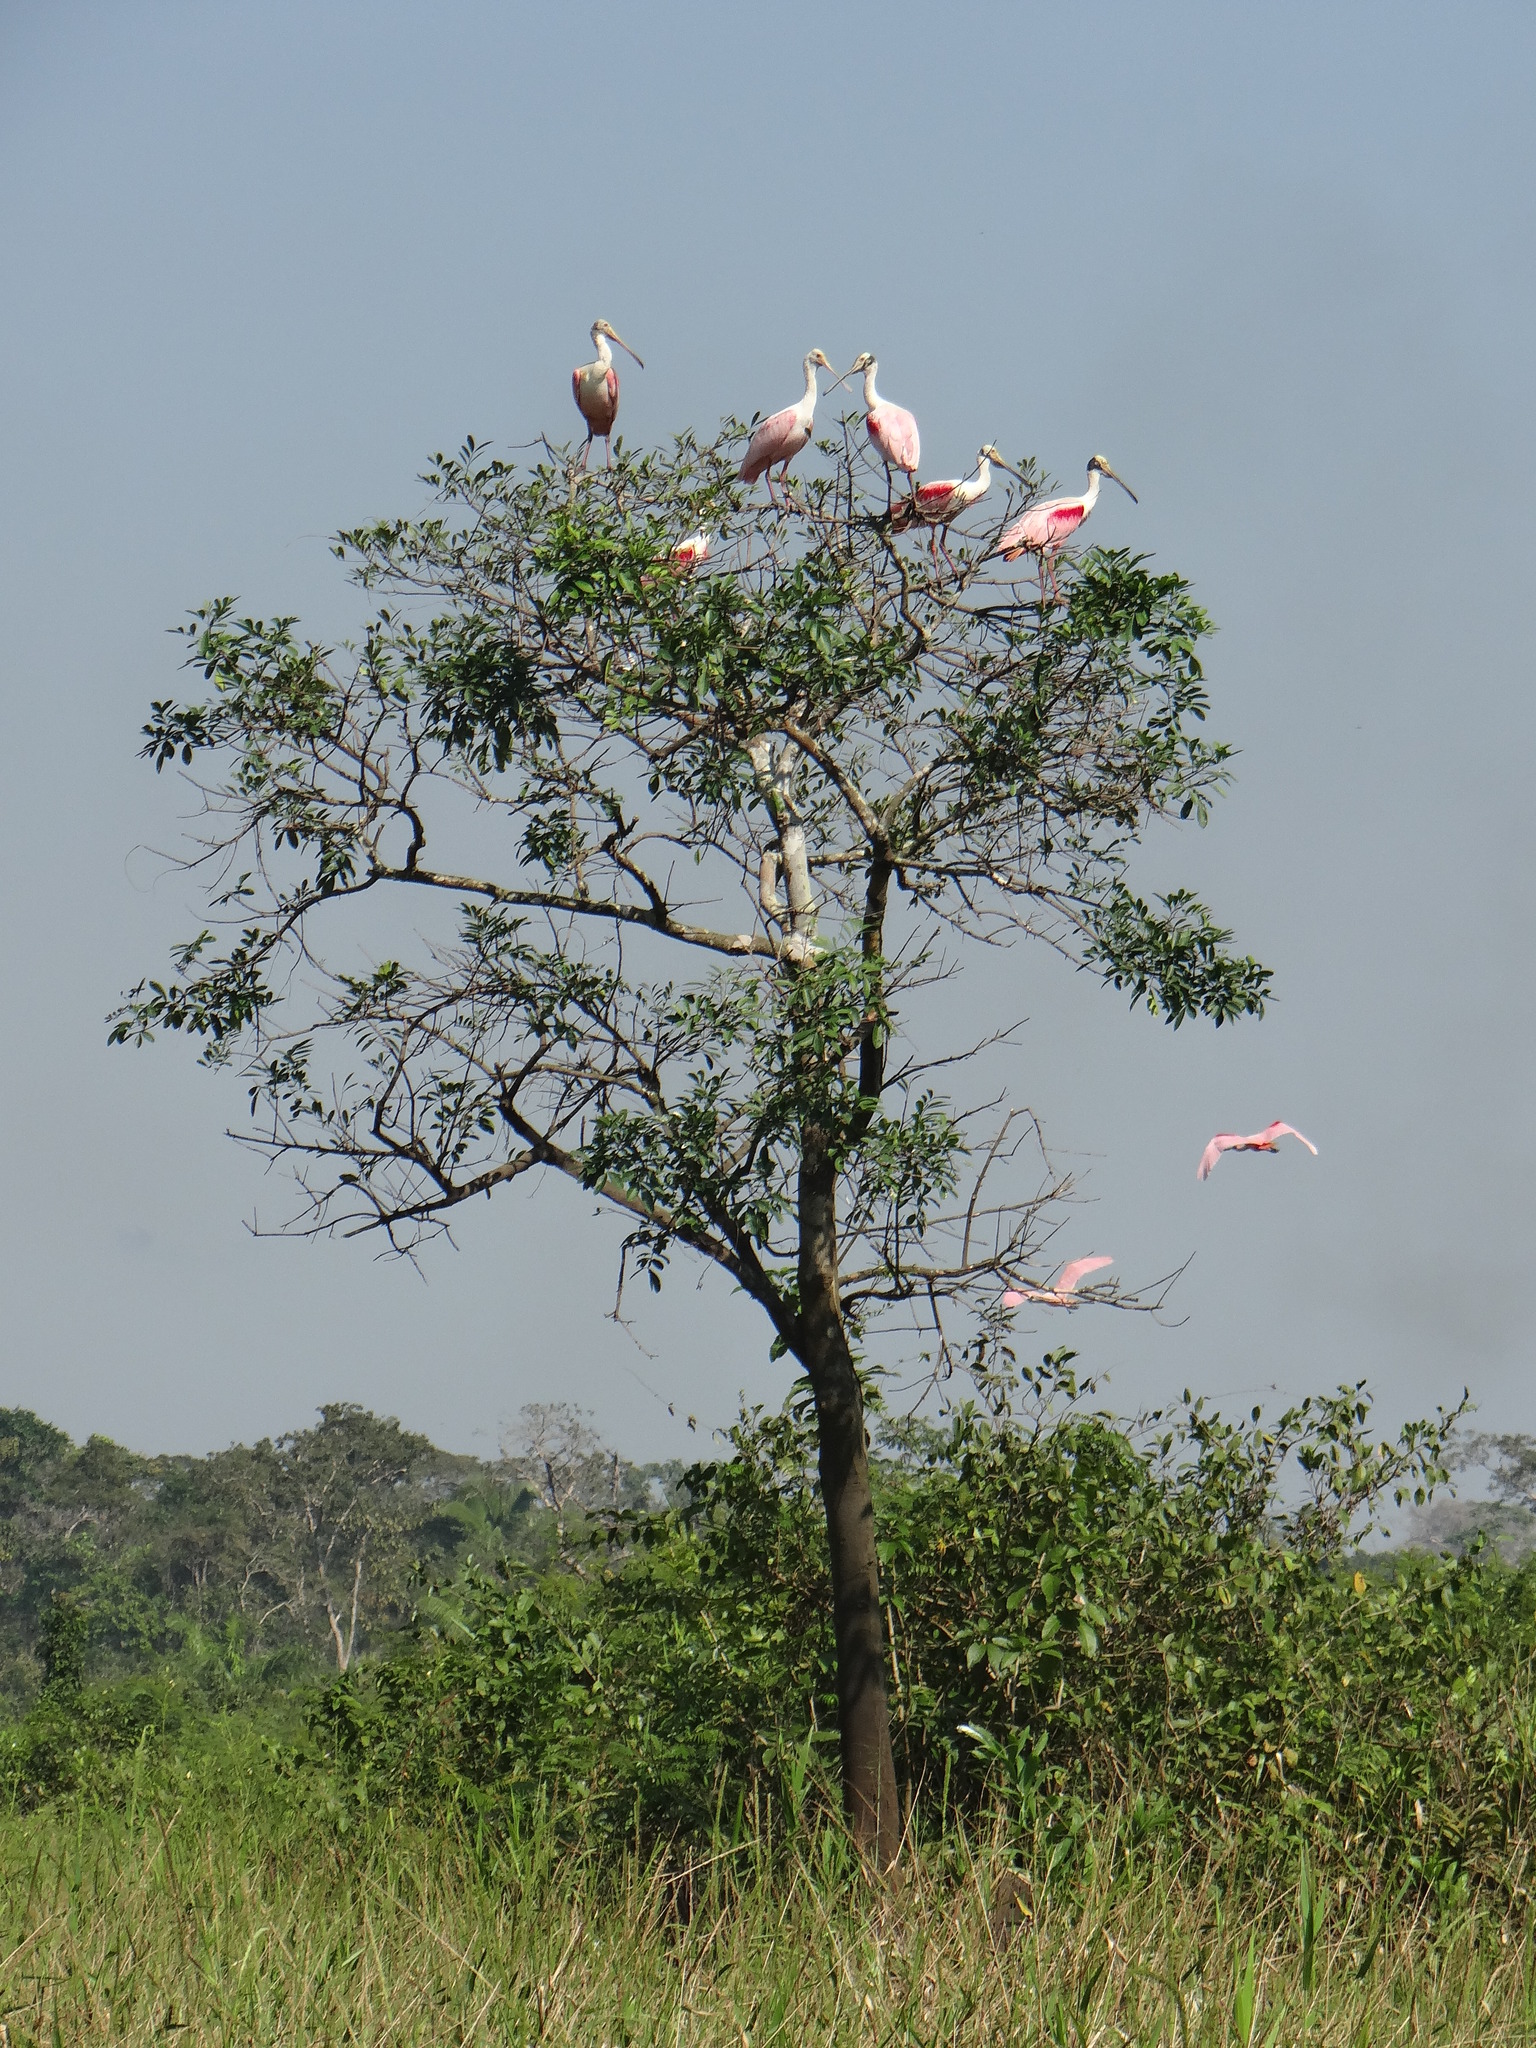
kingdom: Animalia
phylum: Chordata
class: Aves
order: Pelecaniformes
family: Threskiornithidae
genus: Platalea
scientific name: Platalea ajaja
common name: Roseate spoonbill
